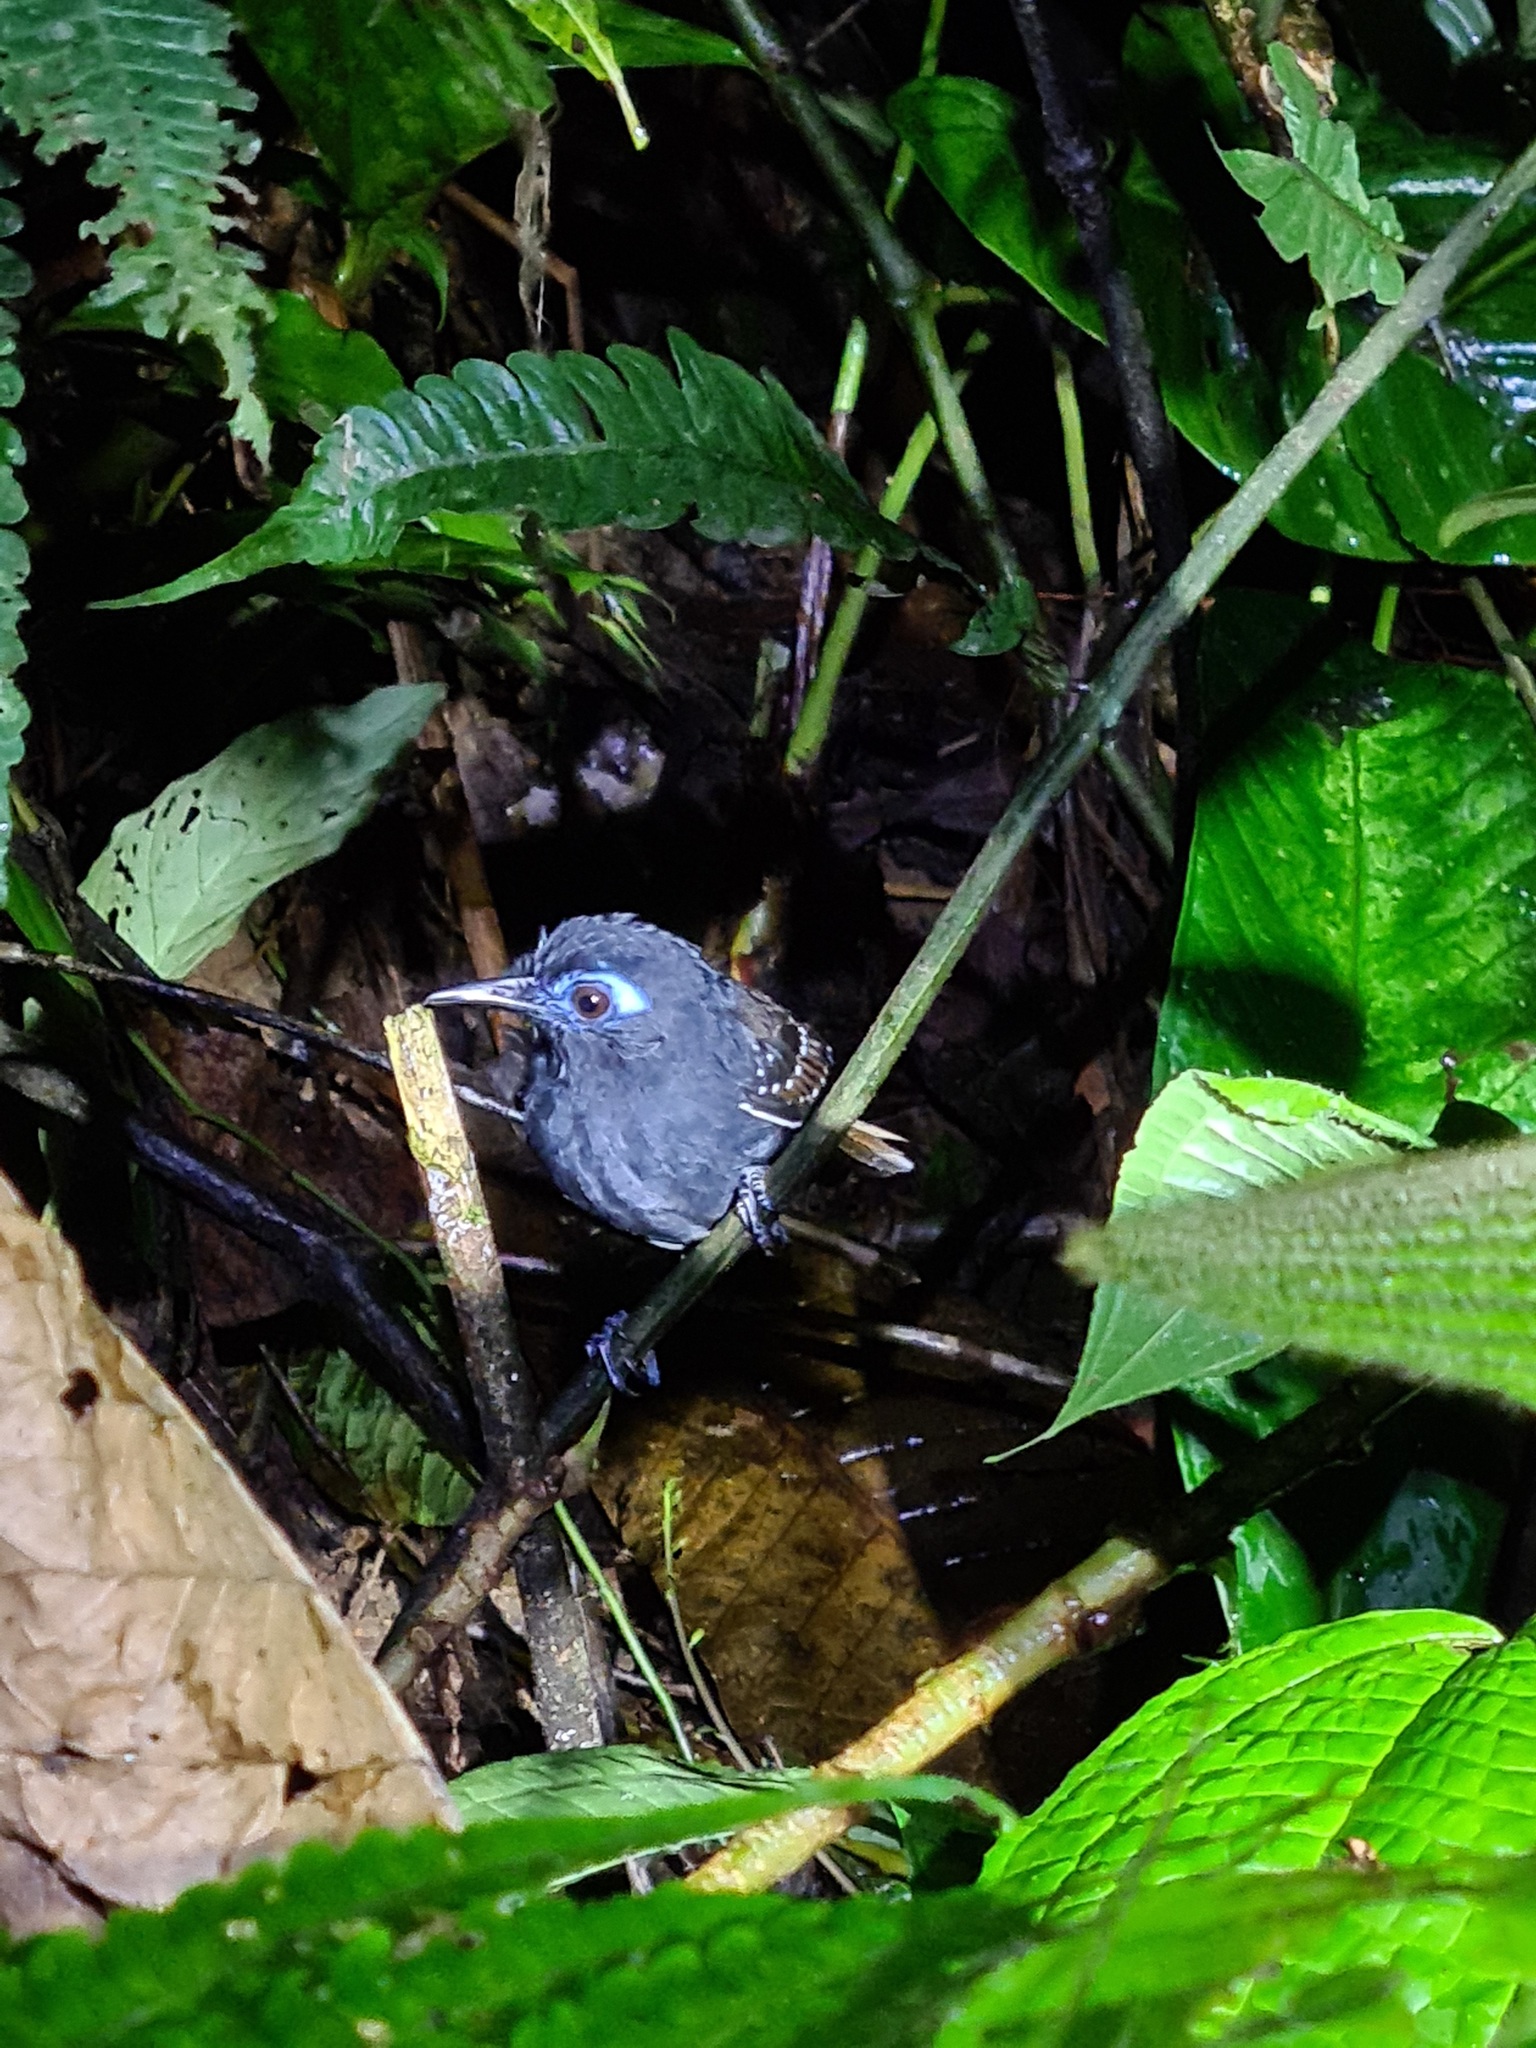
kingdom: Animalia
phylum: Chordata
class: Aves
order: Passeriformes
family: Thamnophilidae
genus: Myrmeciza
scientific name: Myrmeciza exsul
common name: Chestnut-backed antbird
